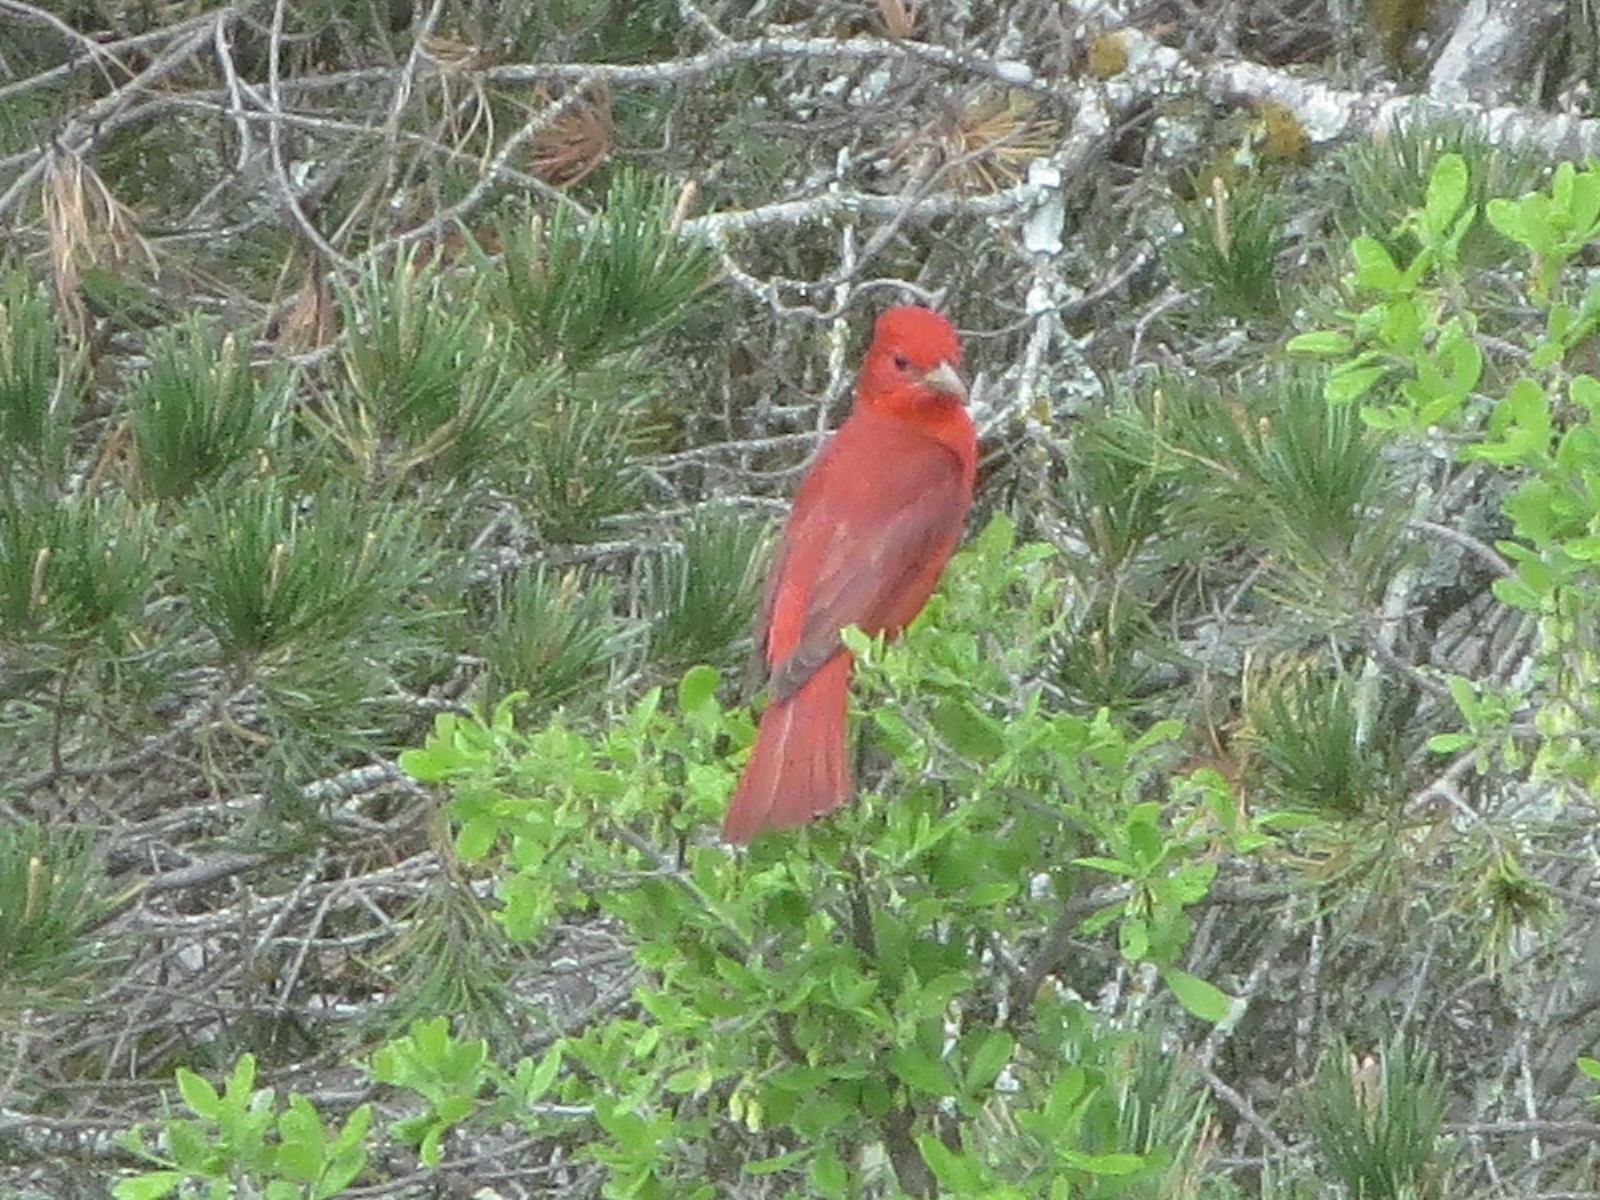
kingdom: Animalia
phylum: Chordata
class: Aves
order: Passeriformes
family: Cardinalidae
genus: Piranga
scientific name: Piranga rubra
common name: Summer tanager
